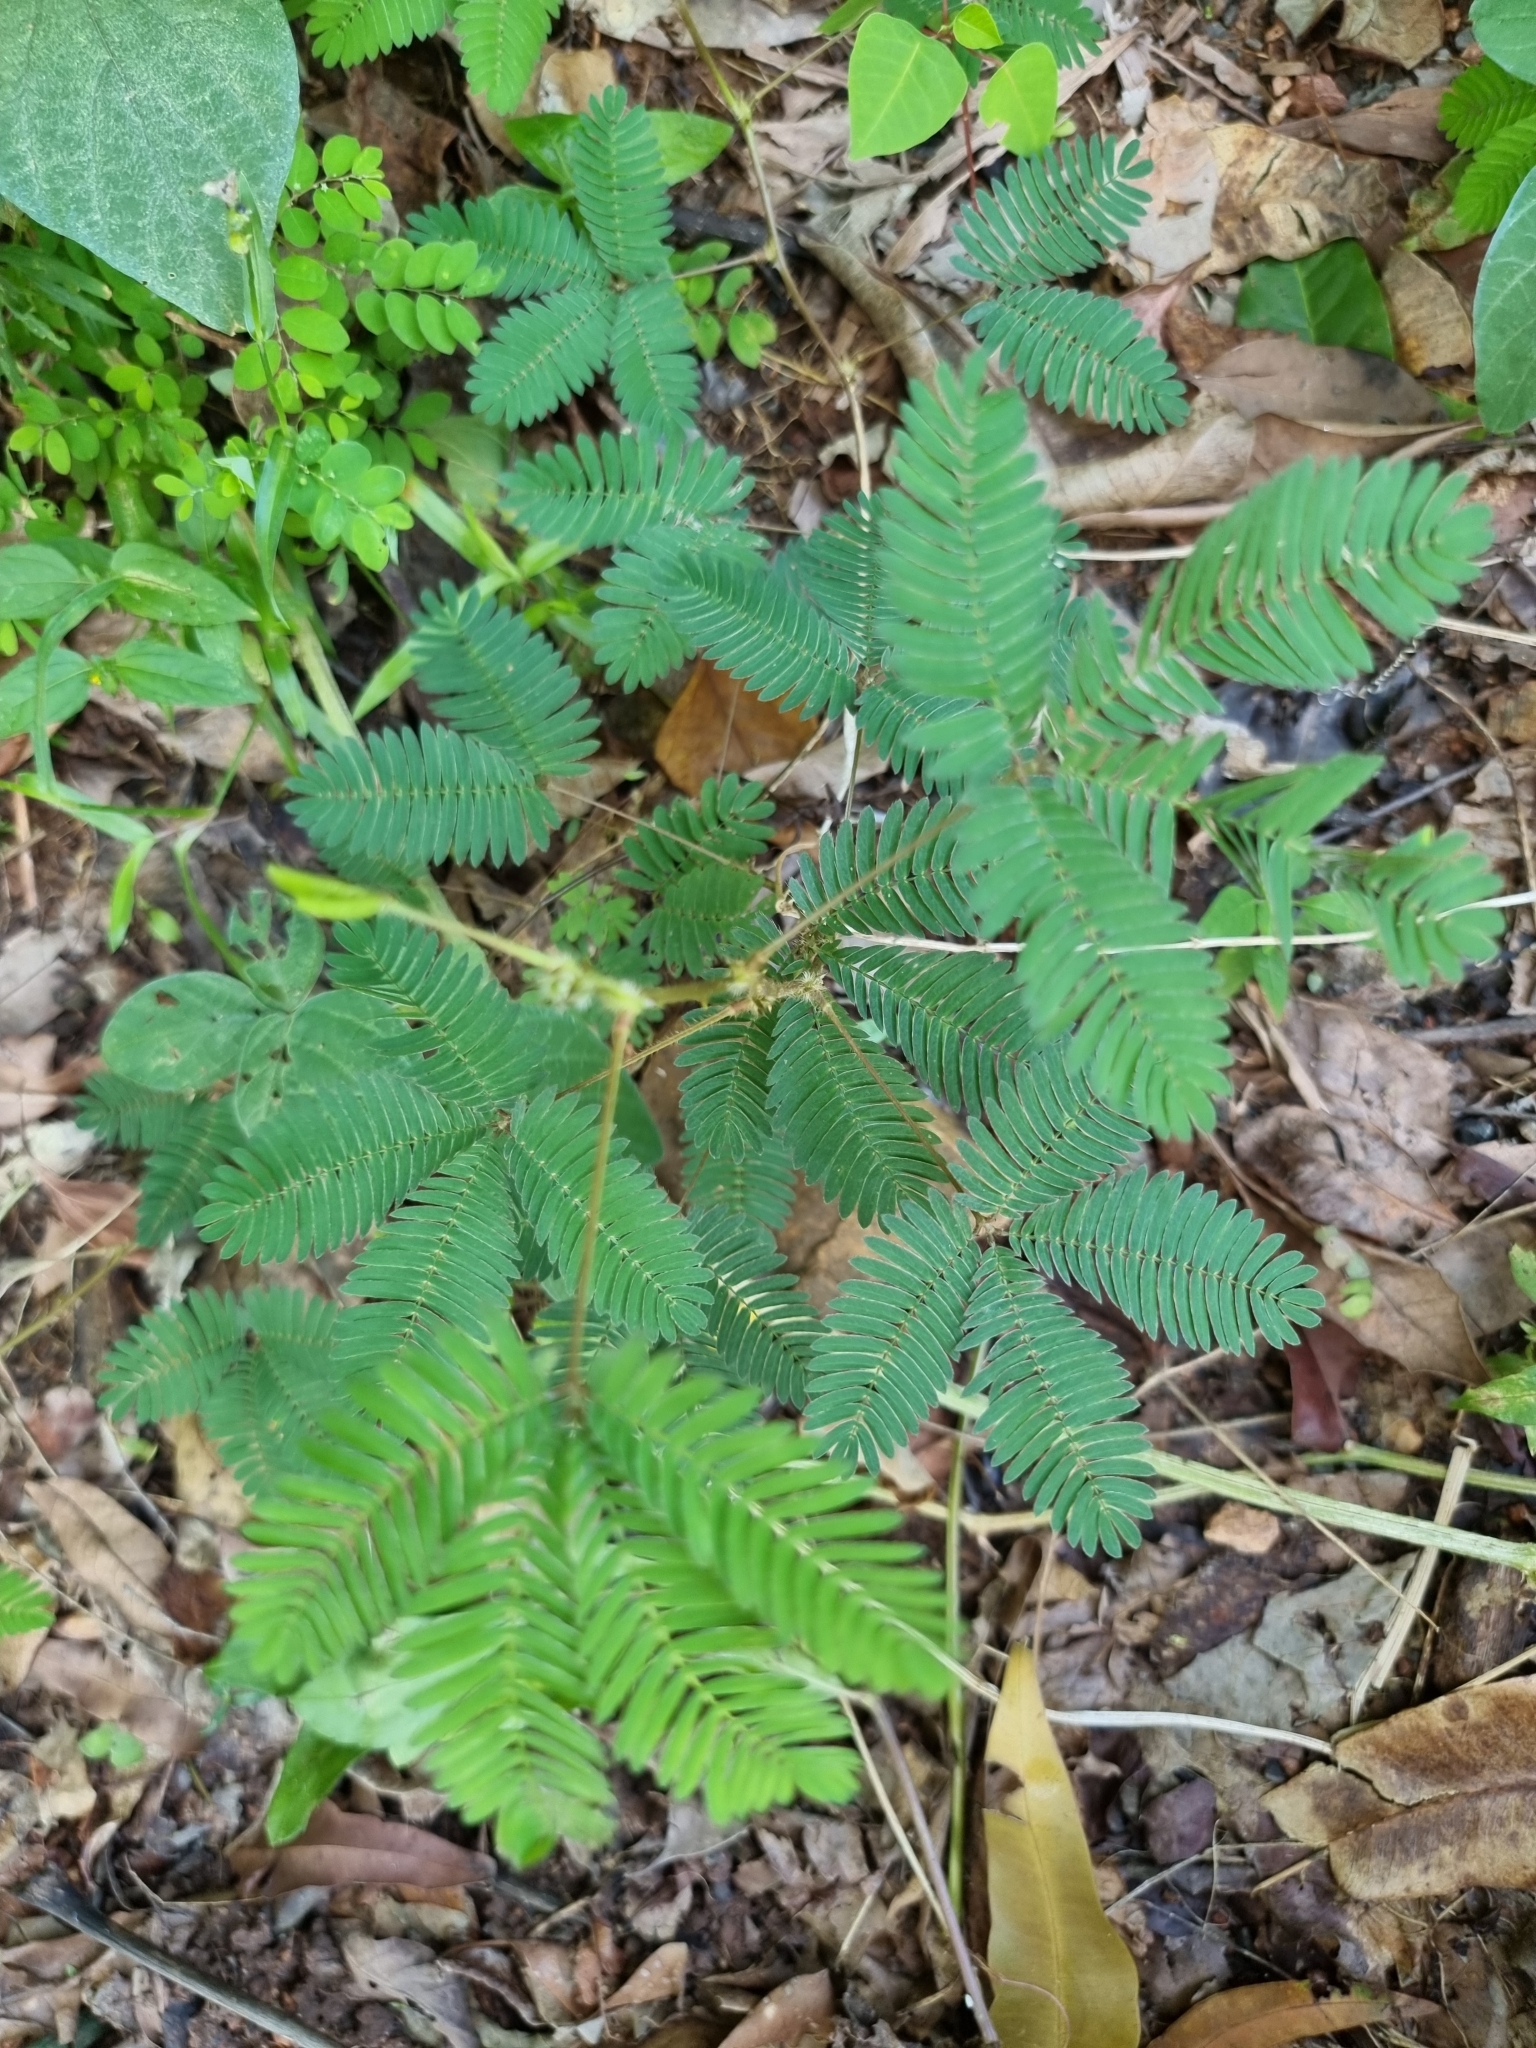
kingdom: Plantae
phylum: Tracheophyta
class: Magnoliopsida
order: Fabales
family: Fabaceae
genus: Mimosa
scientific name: Mimosa pudica
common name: Sensitive plant
